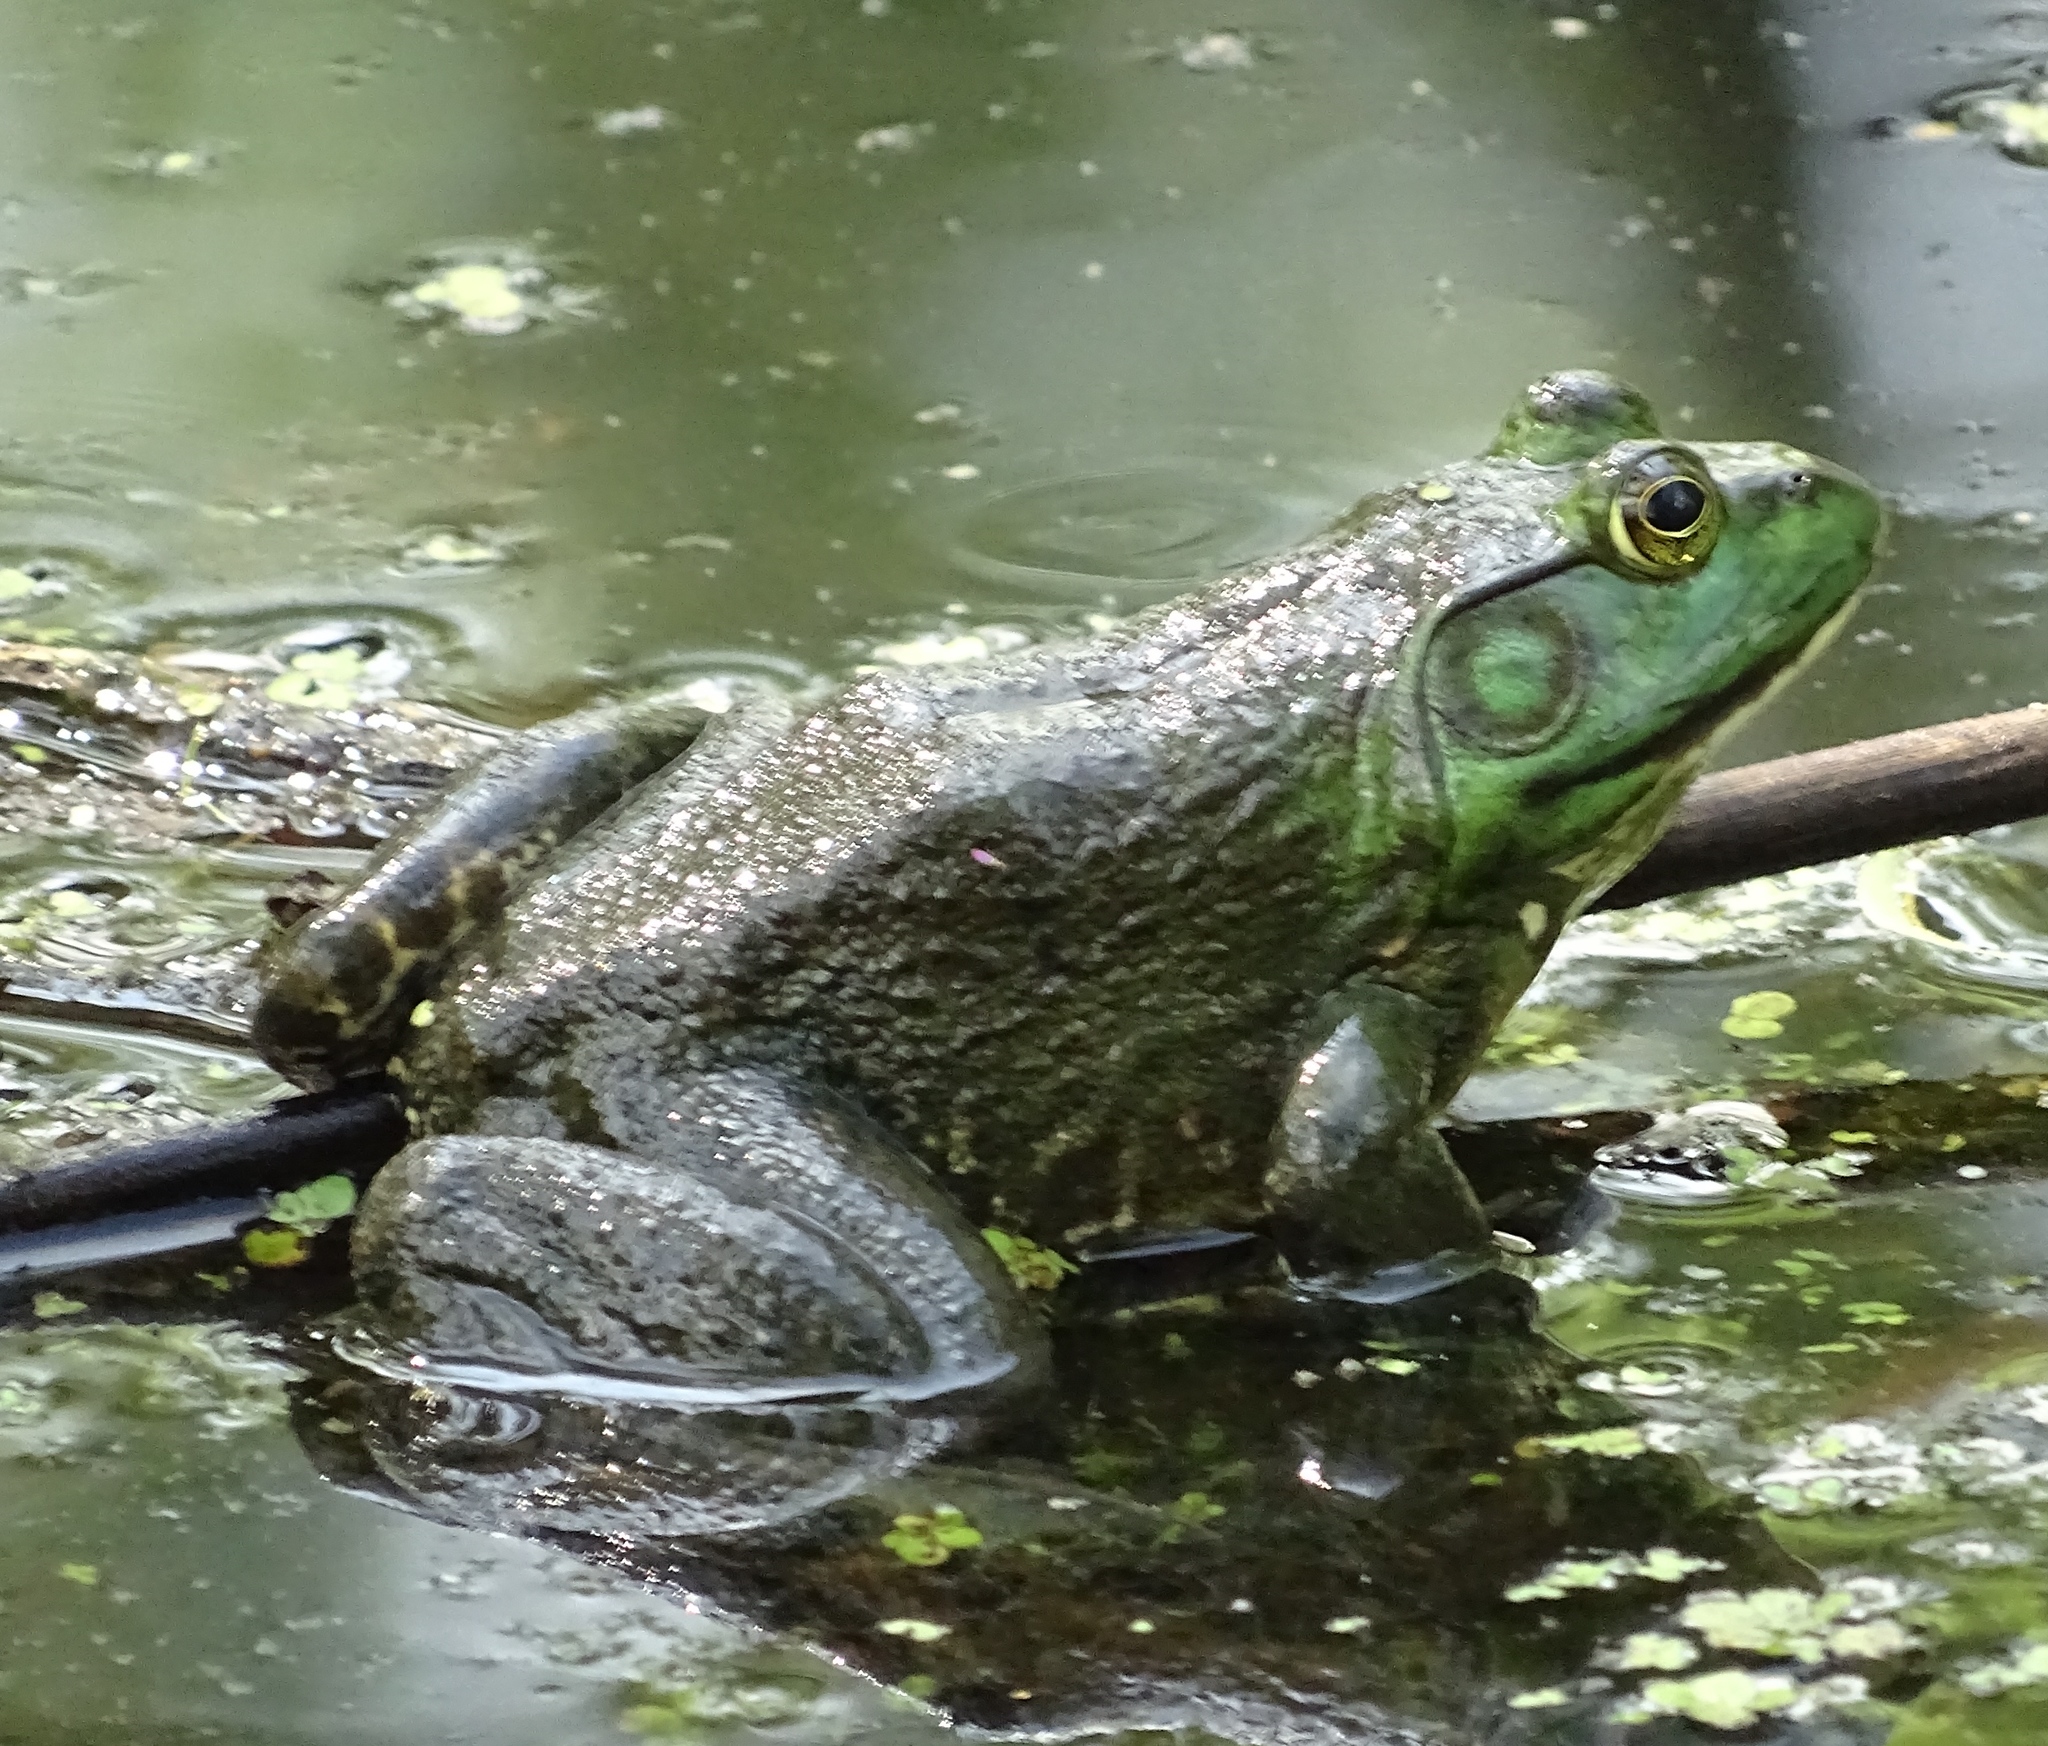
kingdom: Animalia
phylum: Chordata
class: Amphibia
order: Anura
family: Ranidae
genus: Lithobates
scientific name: Lithobates catesbeianus
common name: American bullfrog
